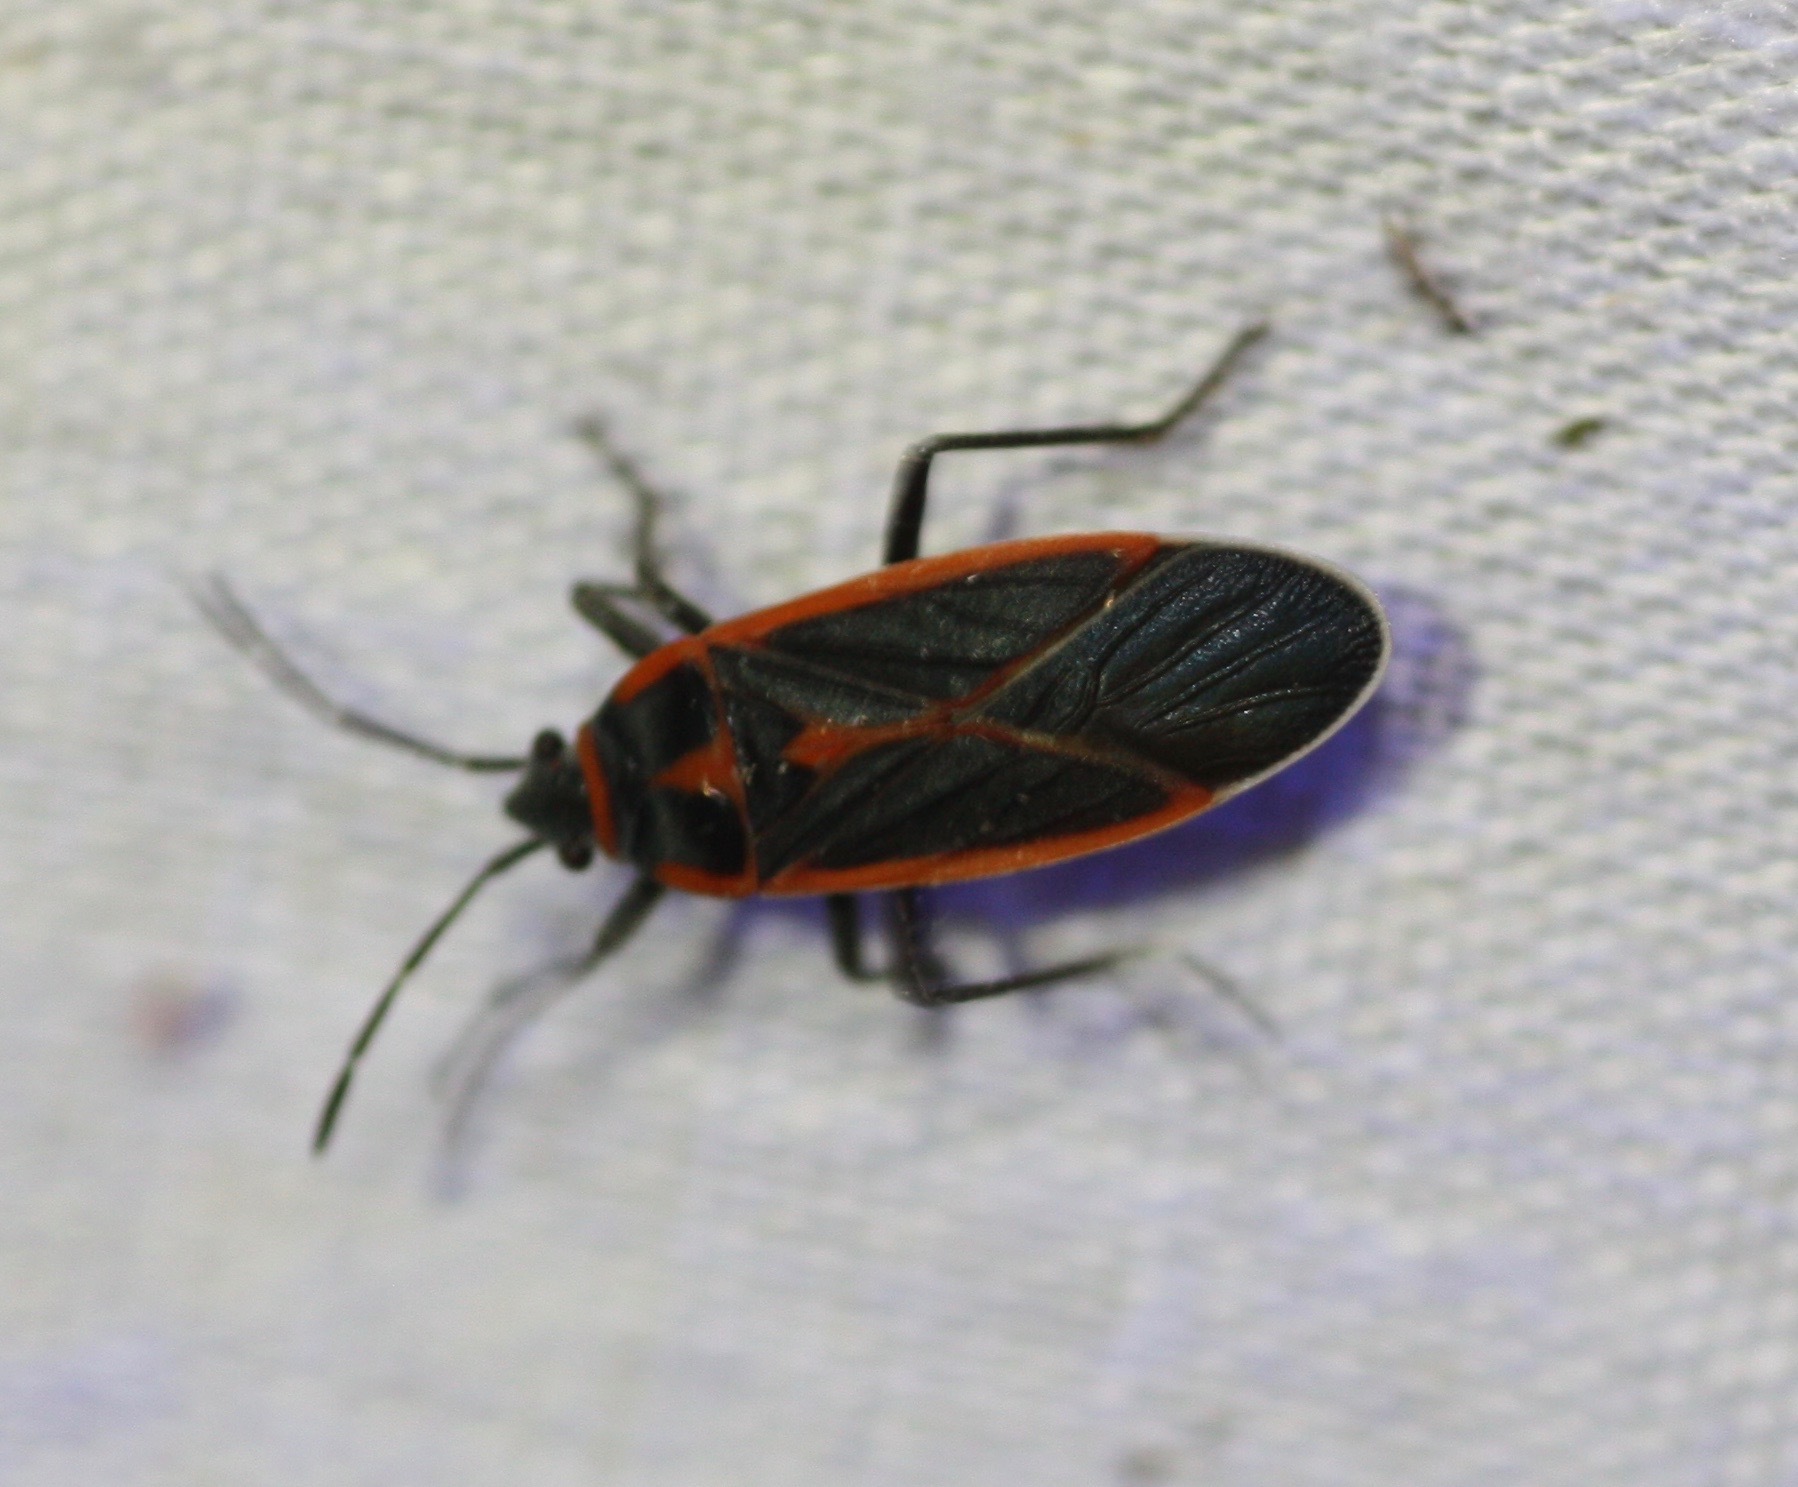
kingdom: Animalia
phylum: Arthropoda
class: Insecta
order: Hemiptera
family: Lygaeidae
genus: Melacoryphus
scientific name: Melacoryphus circumlitus
